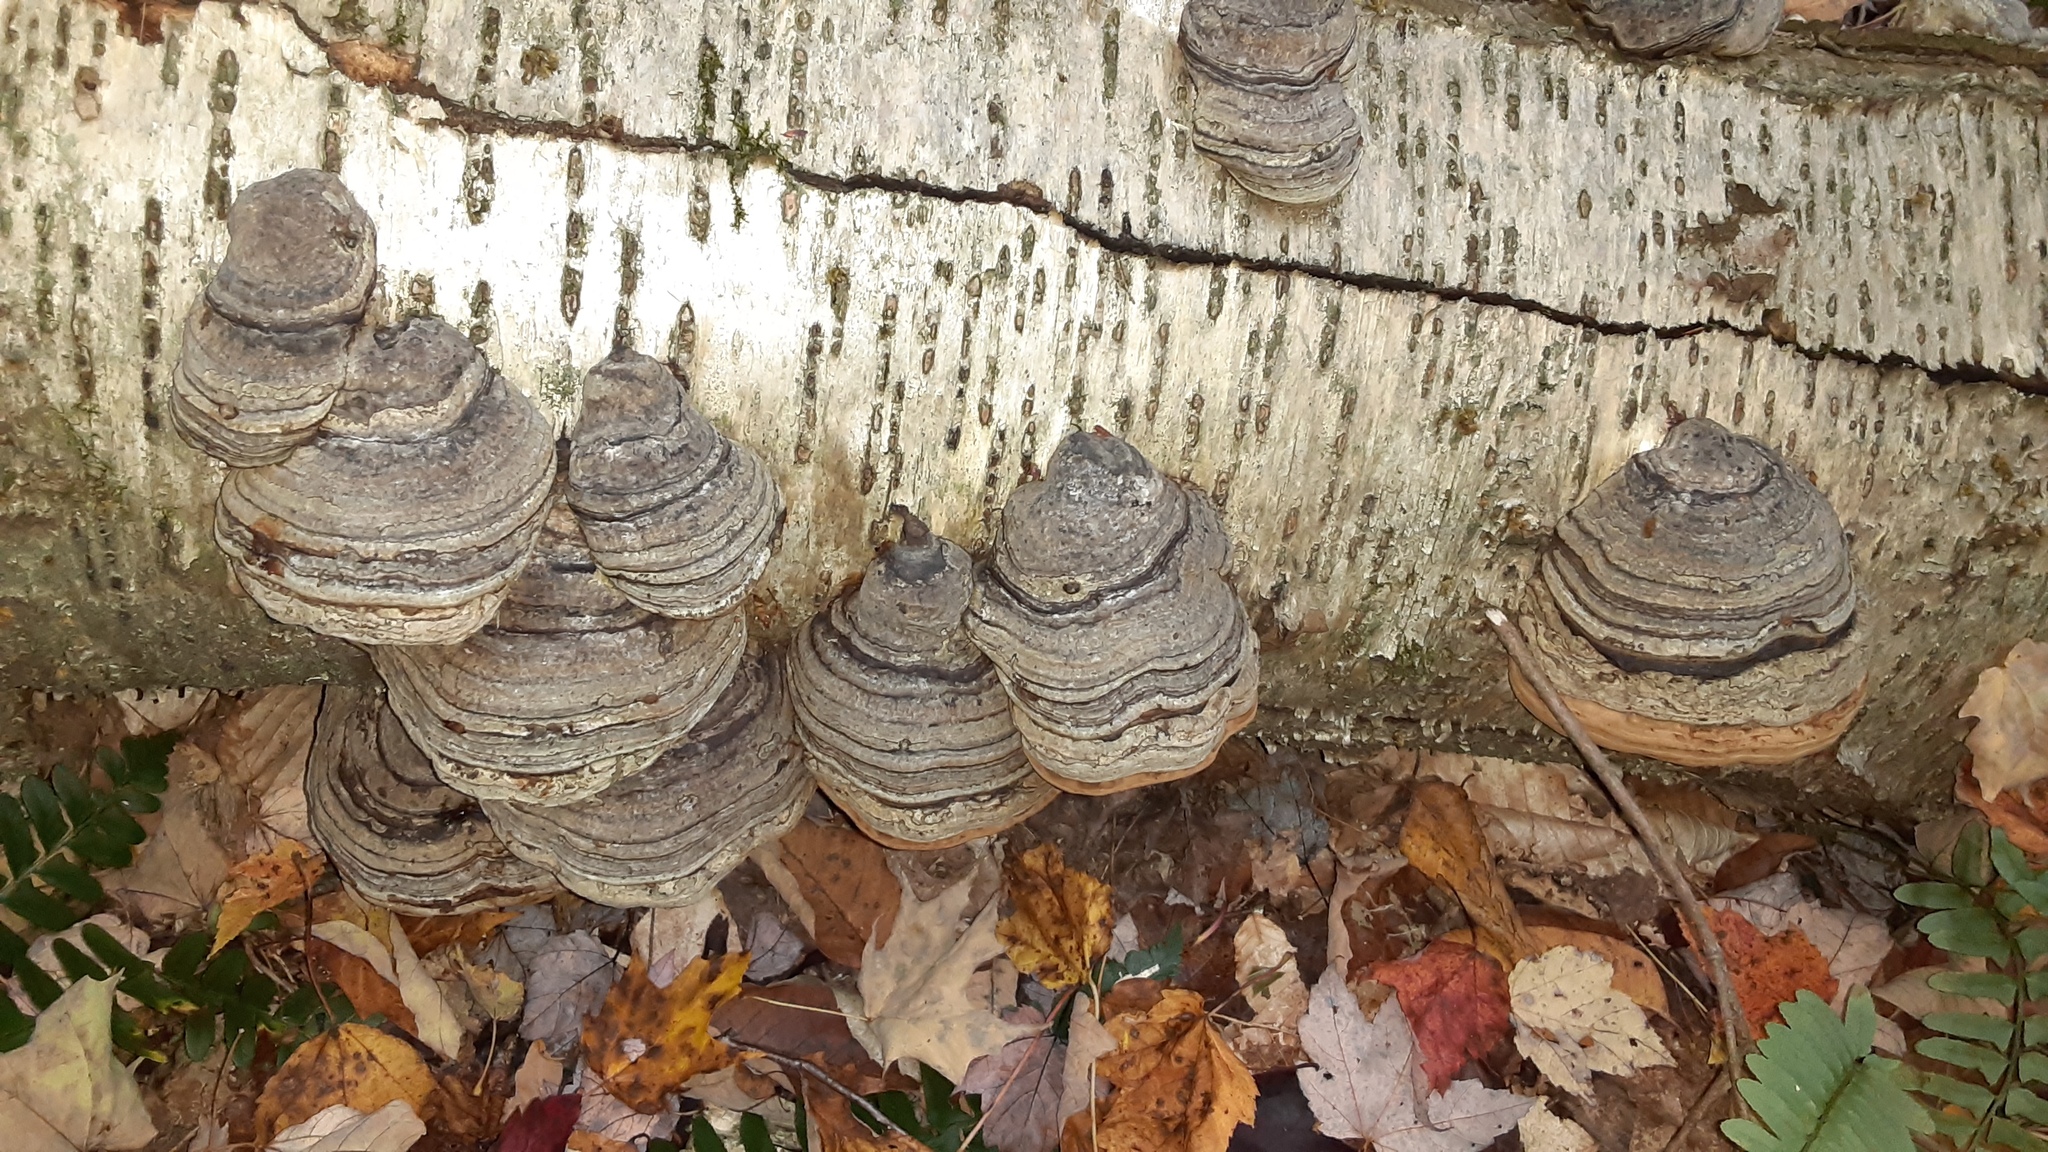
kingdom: Fungi
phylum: Basidiomycota
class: Agaricomycetes
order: Polyporales
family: Polyporaceae
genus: Fomes
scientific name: Fomes fomentarius
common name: Hoof fungus
